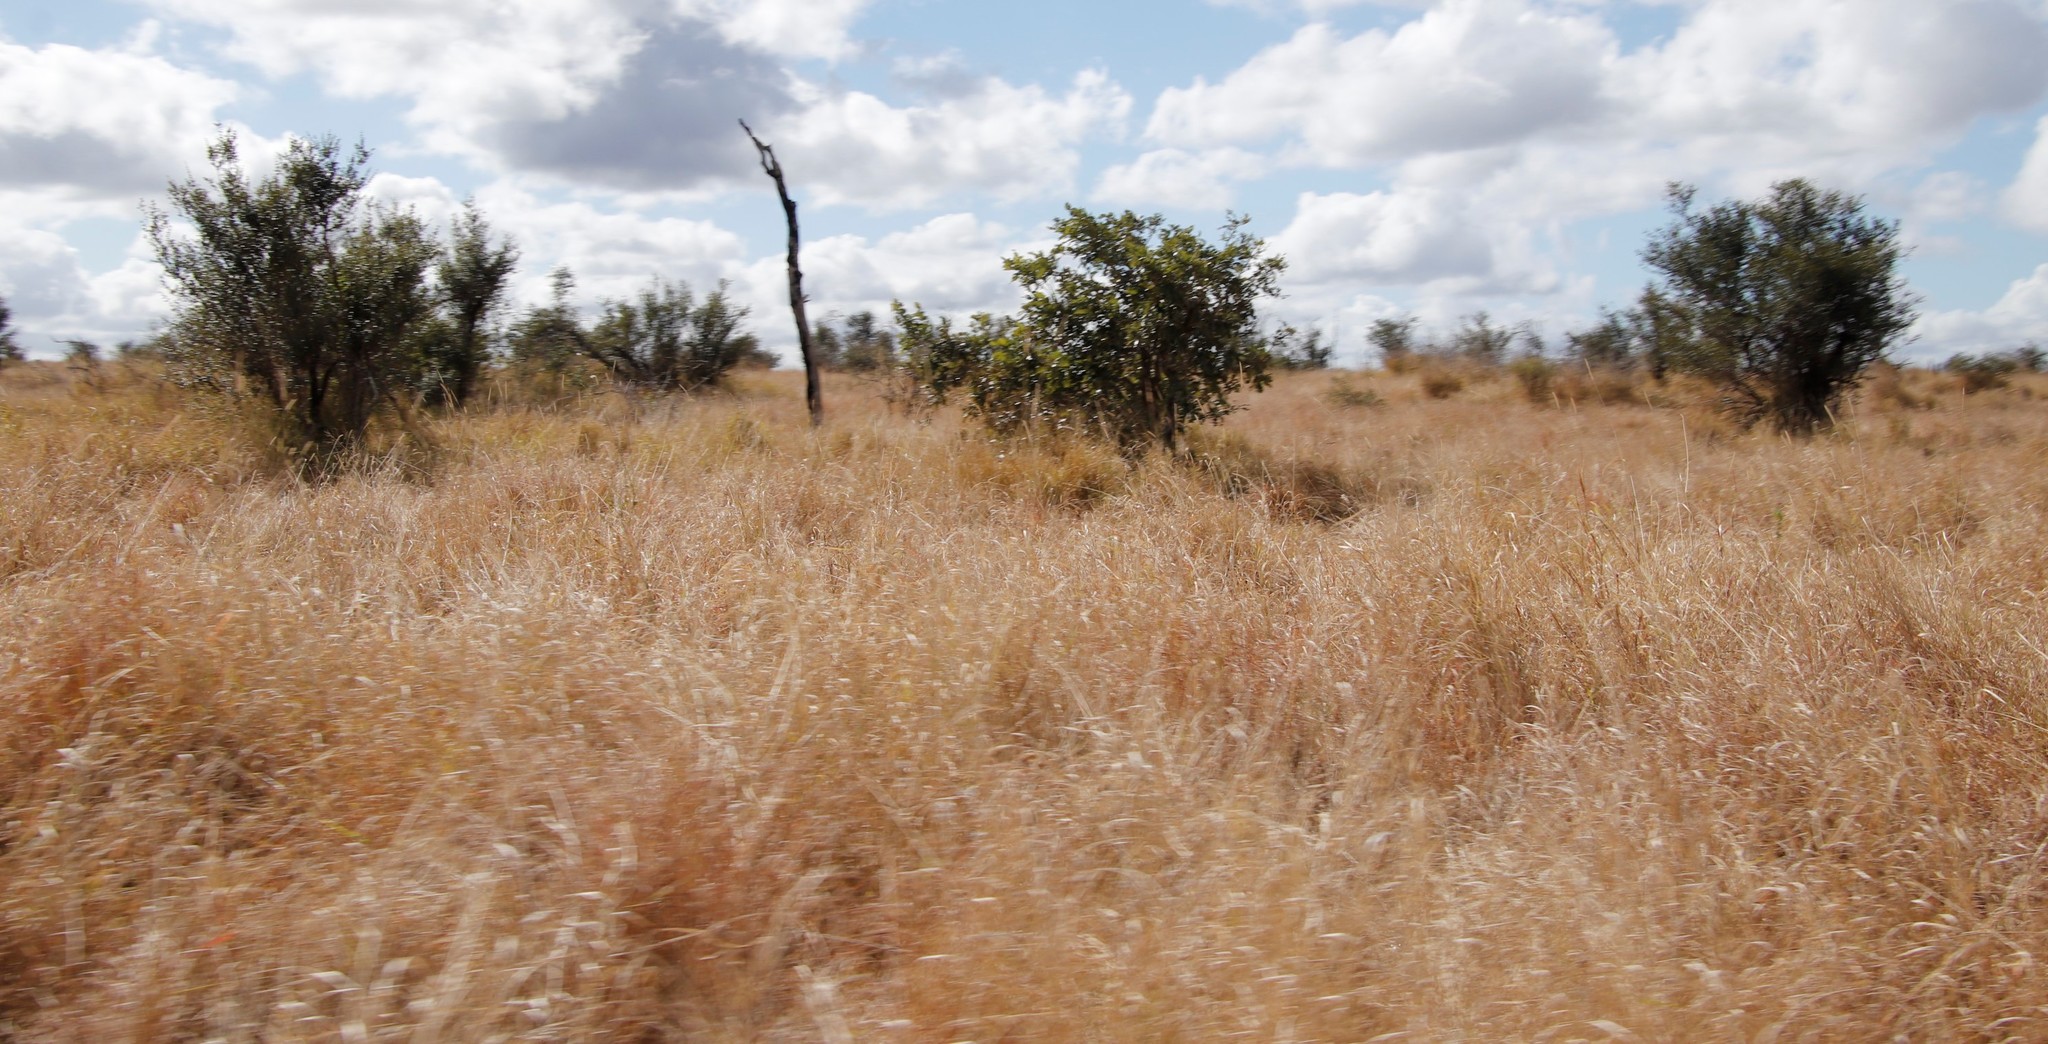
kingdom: Plantae
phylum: Tracheophyta
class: Magnoliopsida
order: Fabales
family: Fabaceae
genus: Philenoptera
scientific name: Philenoptera violacea
